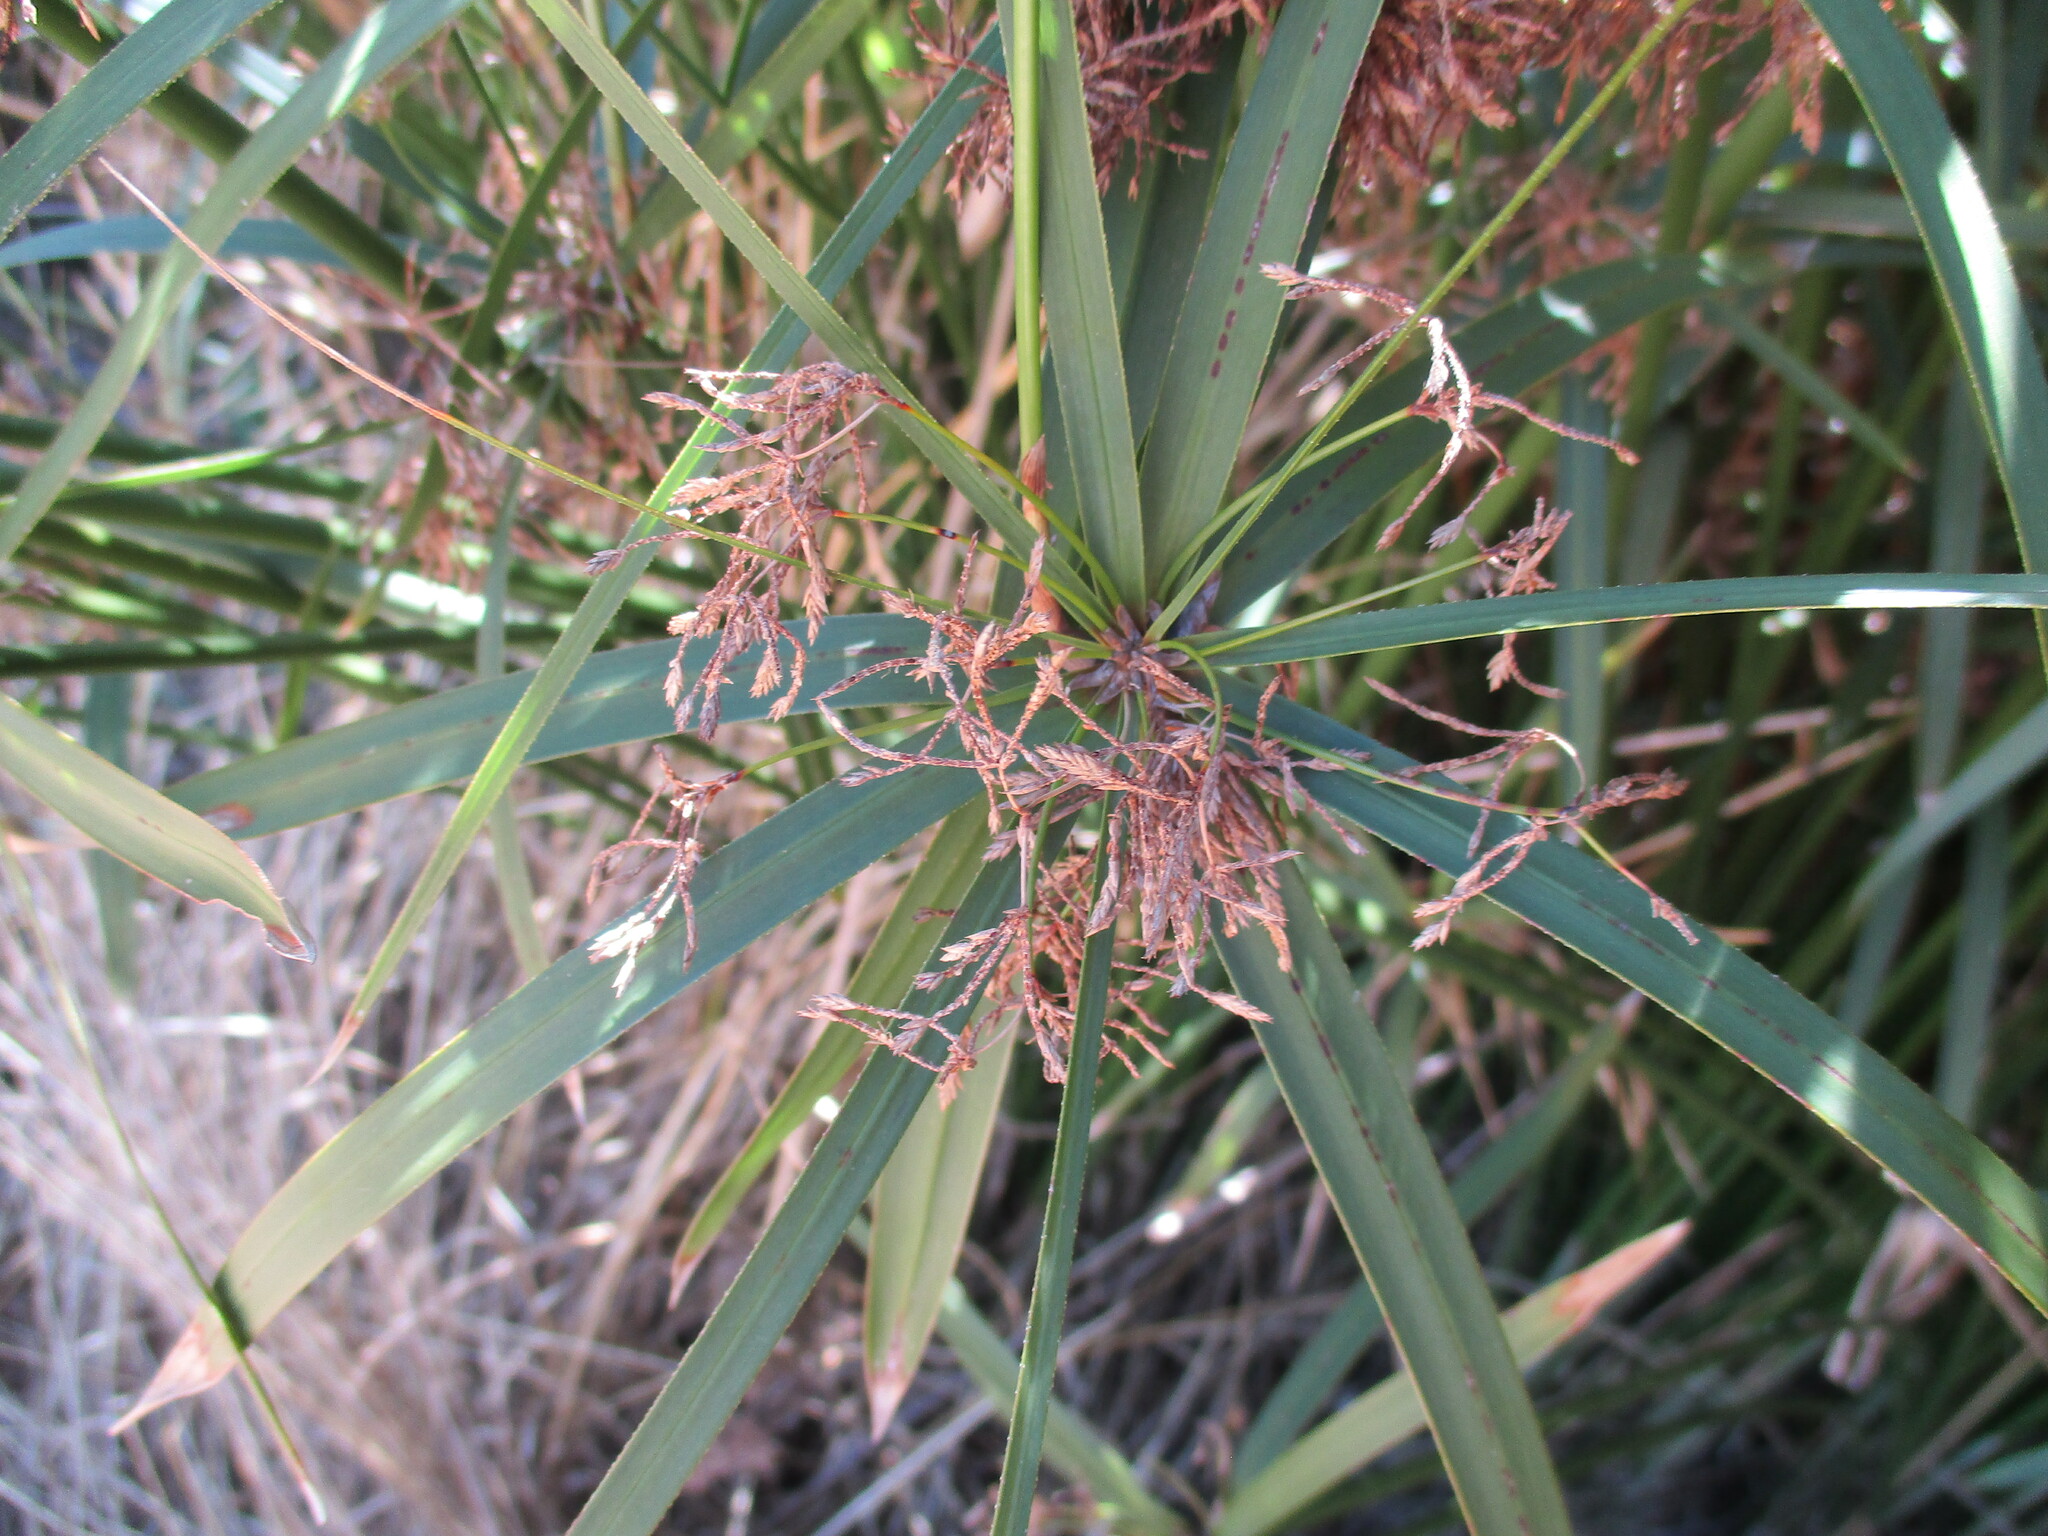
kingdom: Plantae
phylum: Tracheophyta
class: Liliopsida
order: Poales
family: Cyperaceae
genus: Cyperus
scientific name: Cyperus textilis
